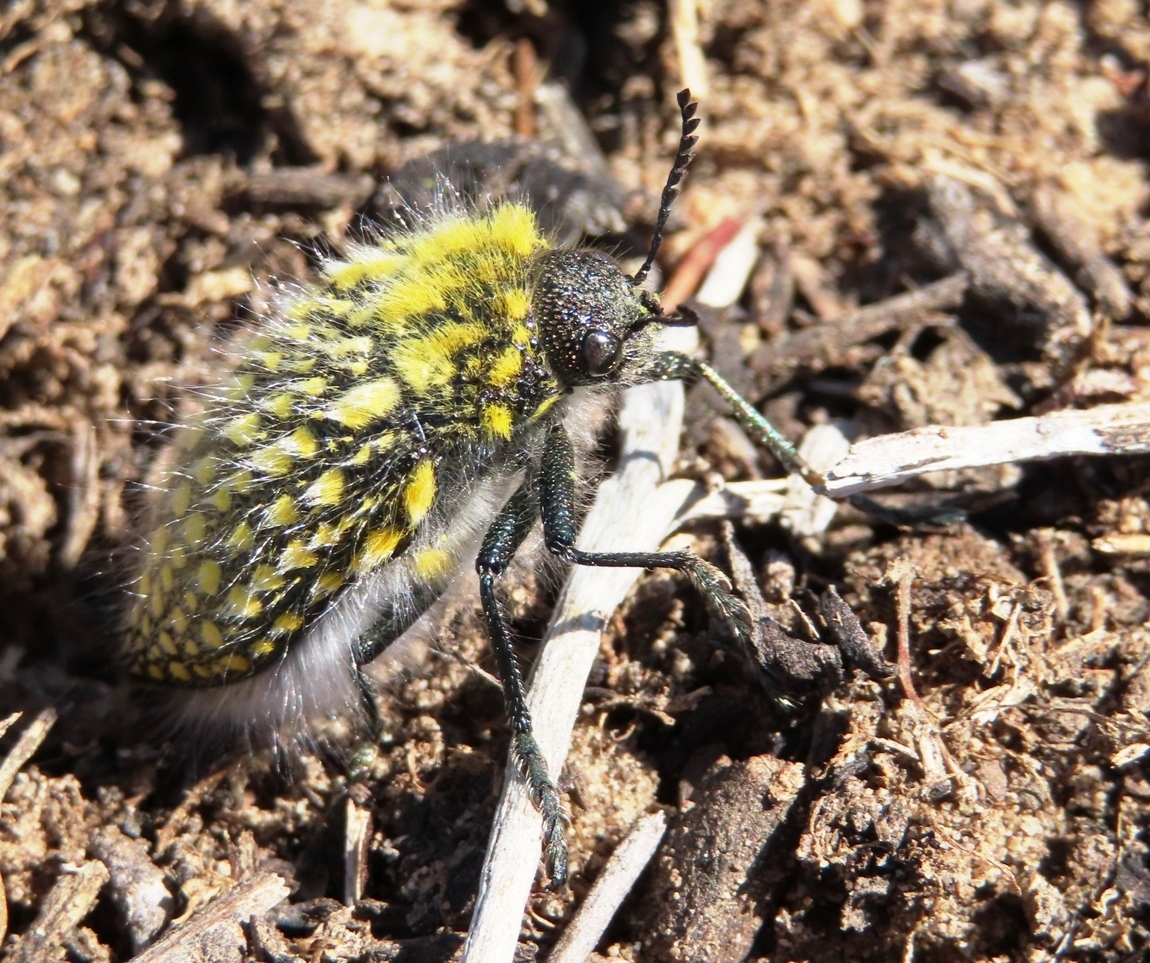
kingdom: Animalia
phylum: Arthropoda
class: Insecta
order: Coleoptera
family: Buprestidae
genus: Julodis
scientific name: Julodis fascicularis
